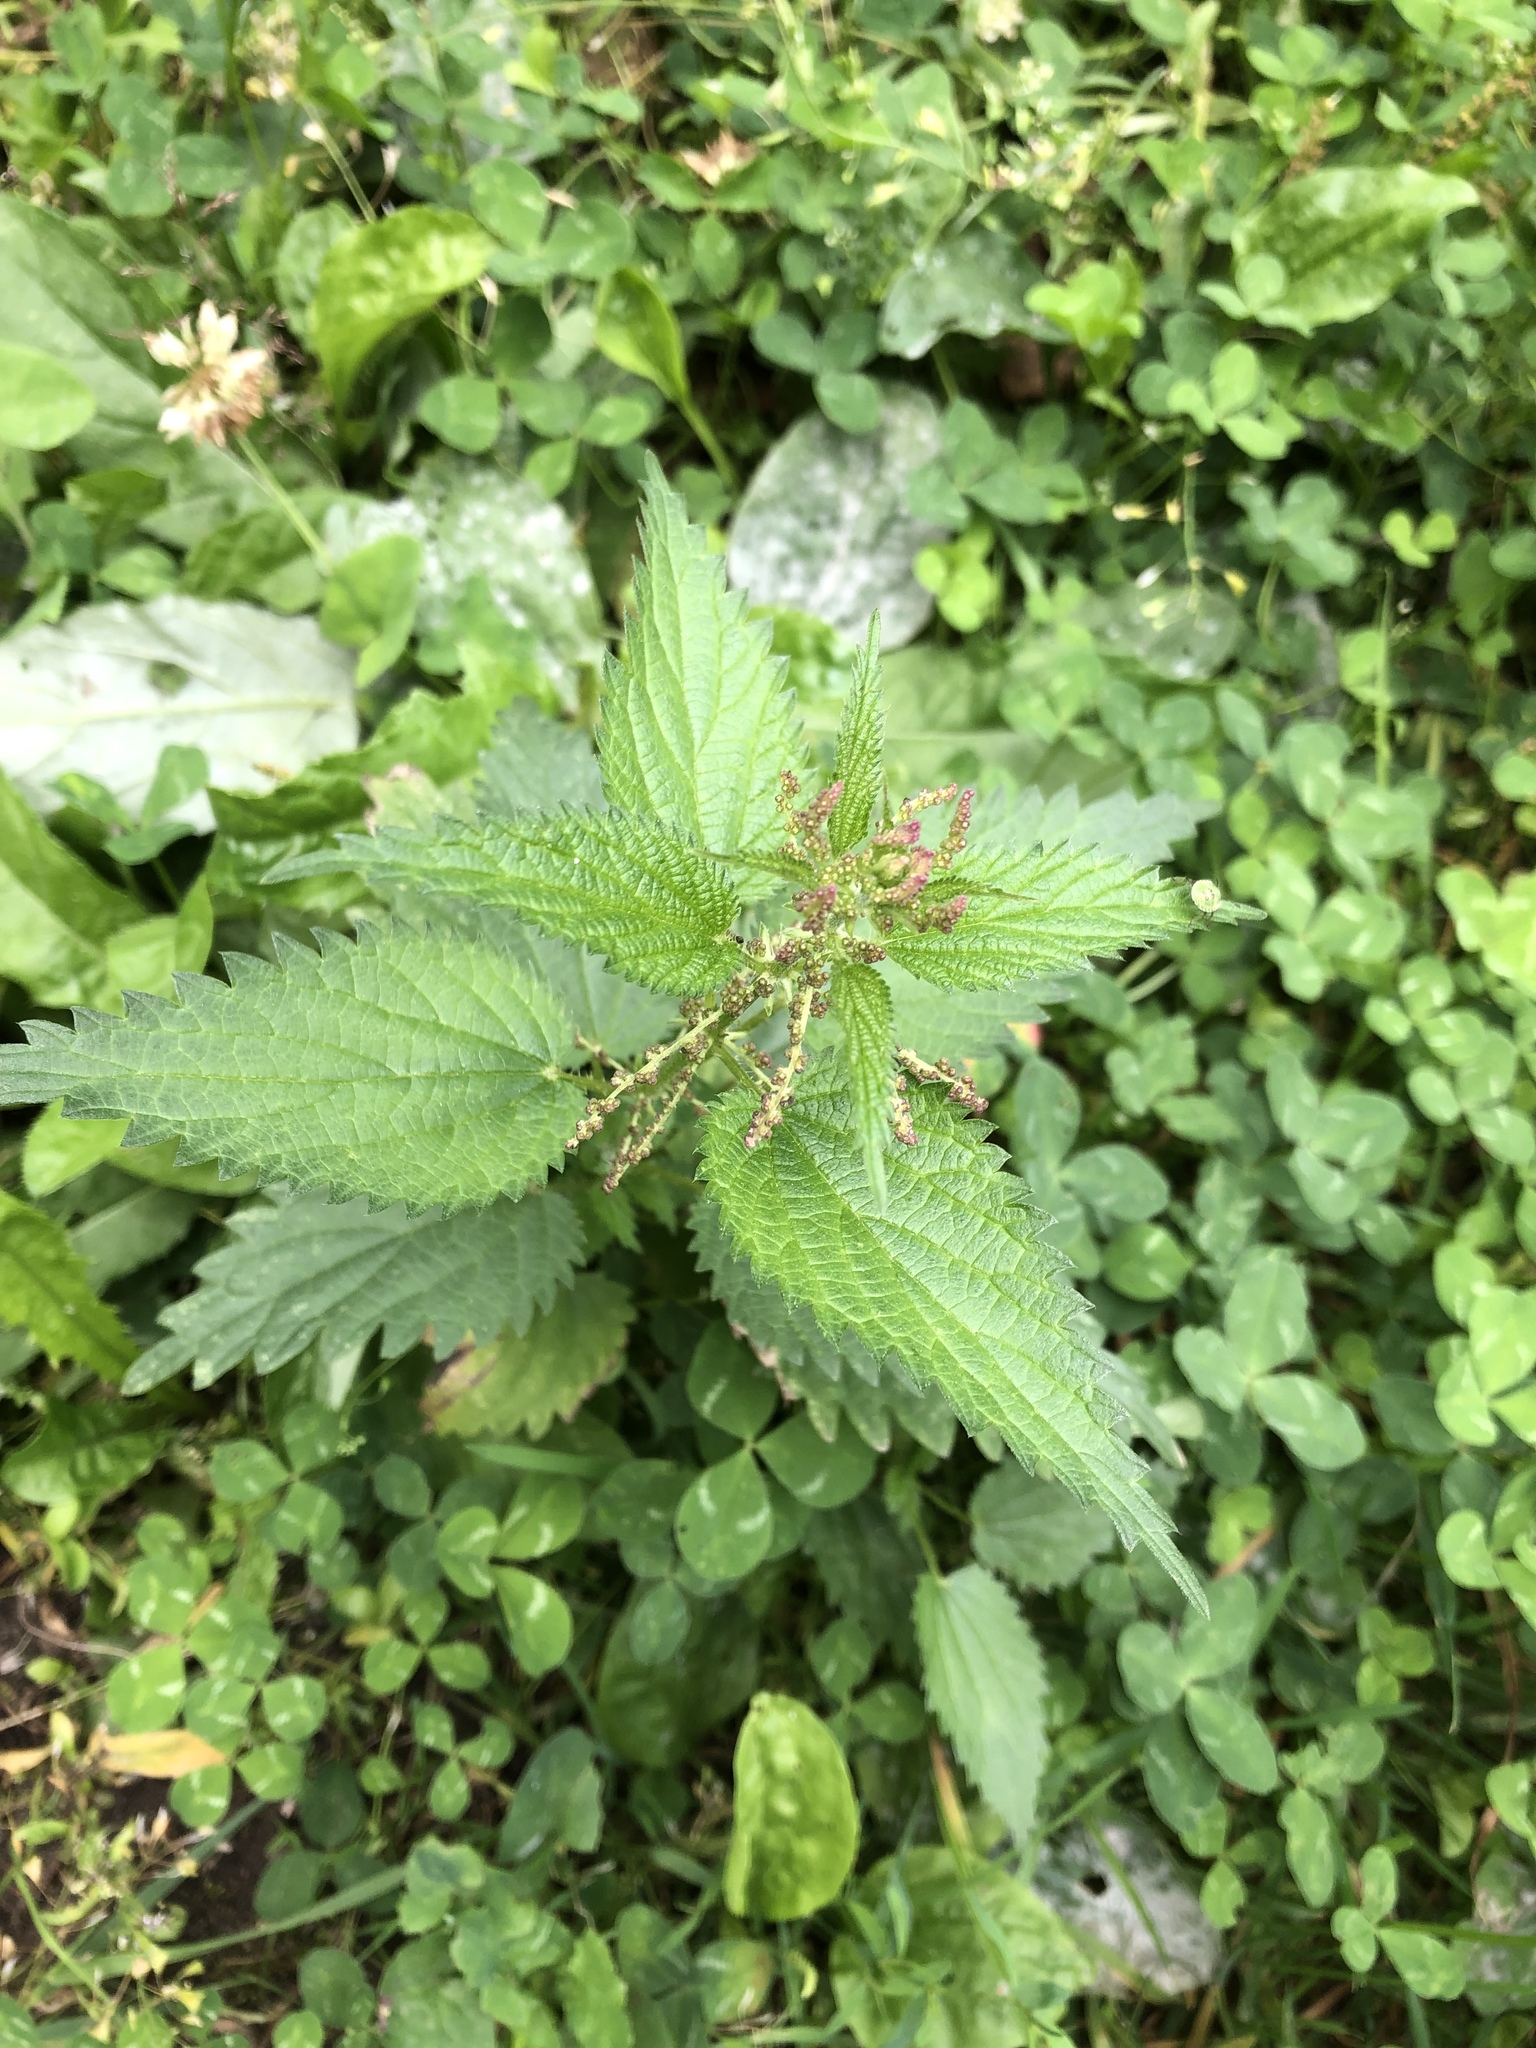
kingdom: Plantae
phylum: Tracheophyta
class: Magnoliopsida
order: Rosales
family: Urticaceae
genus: Urtica
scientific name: Urtica dioica
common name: Common nettle
